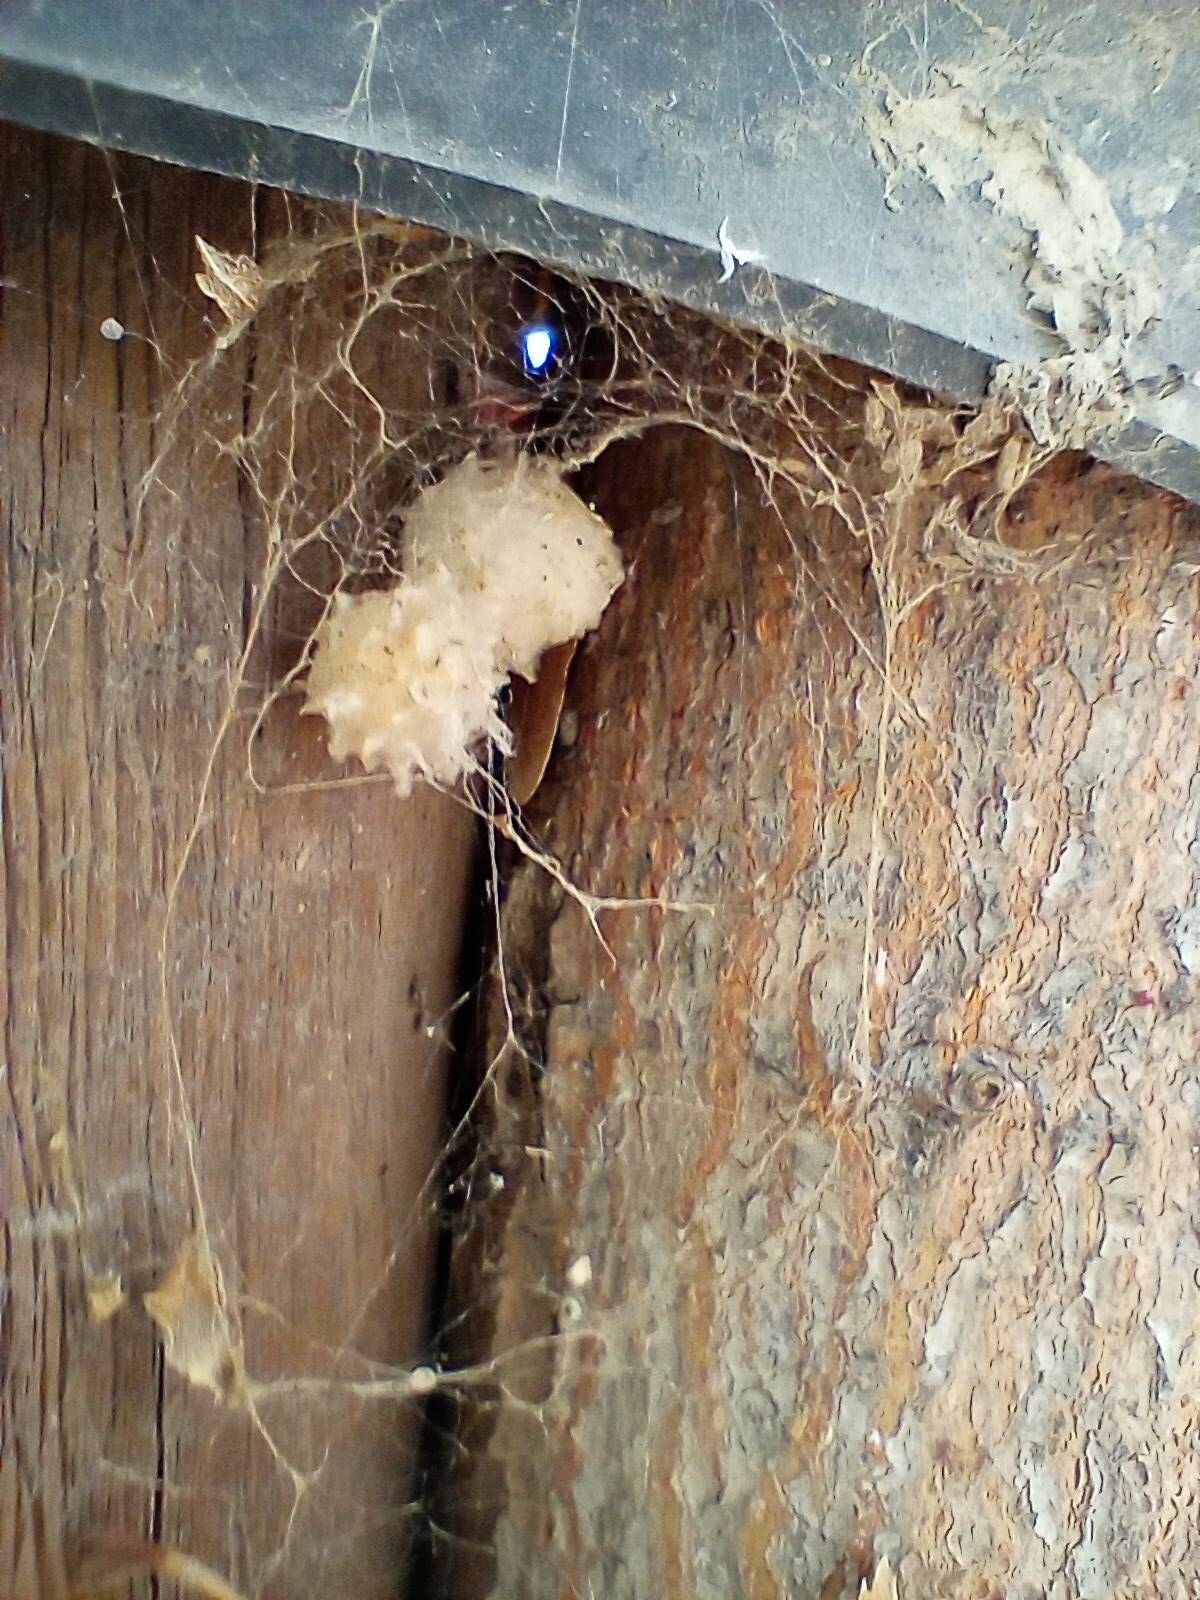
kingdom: Animalia
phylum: Arthropoda
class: Arachnida
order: Araneae
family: Theridiidae
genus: Latrodectus
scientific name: Latrodectus geometricus
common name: Brown widow spider
